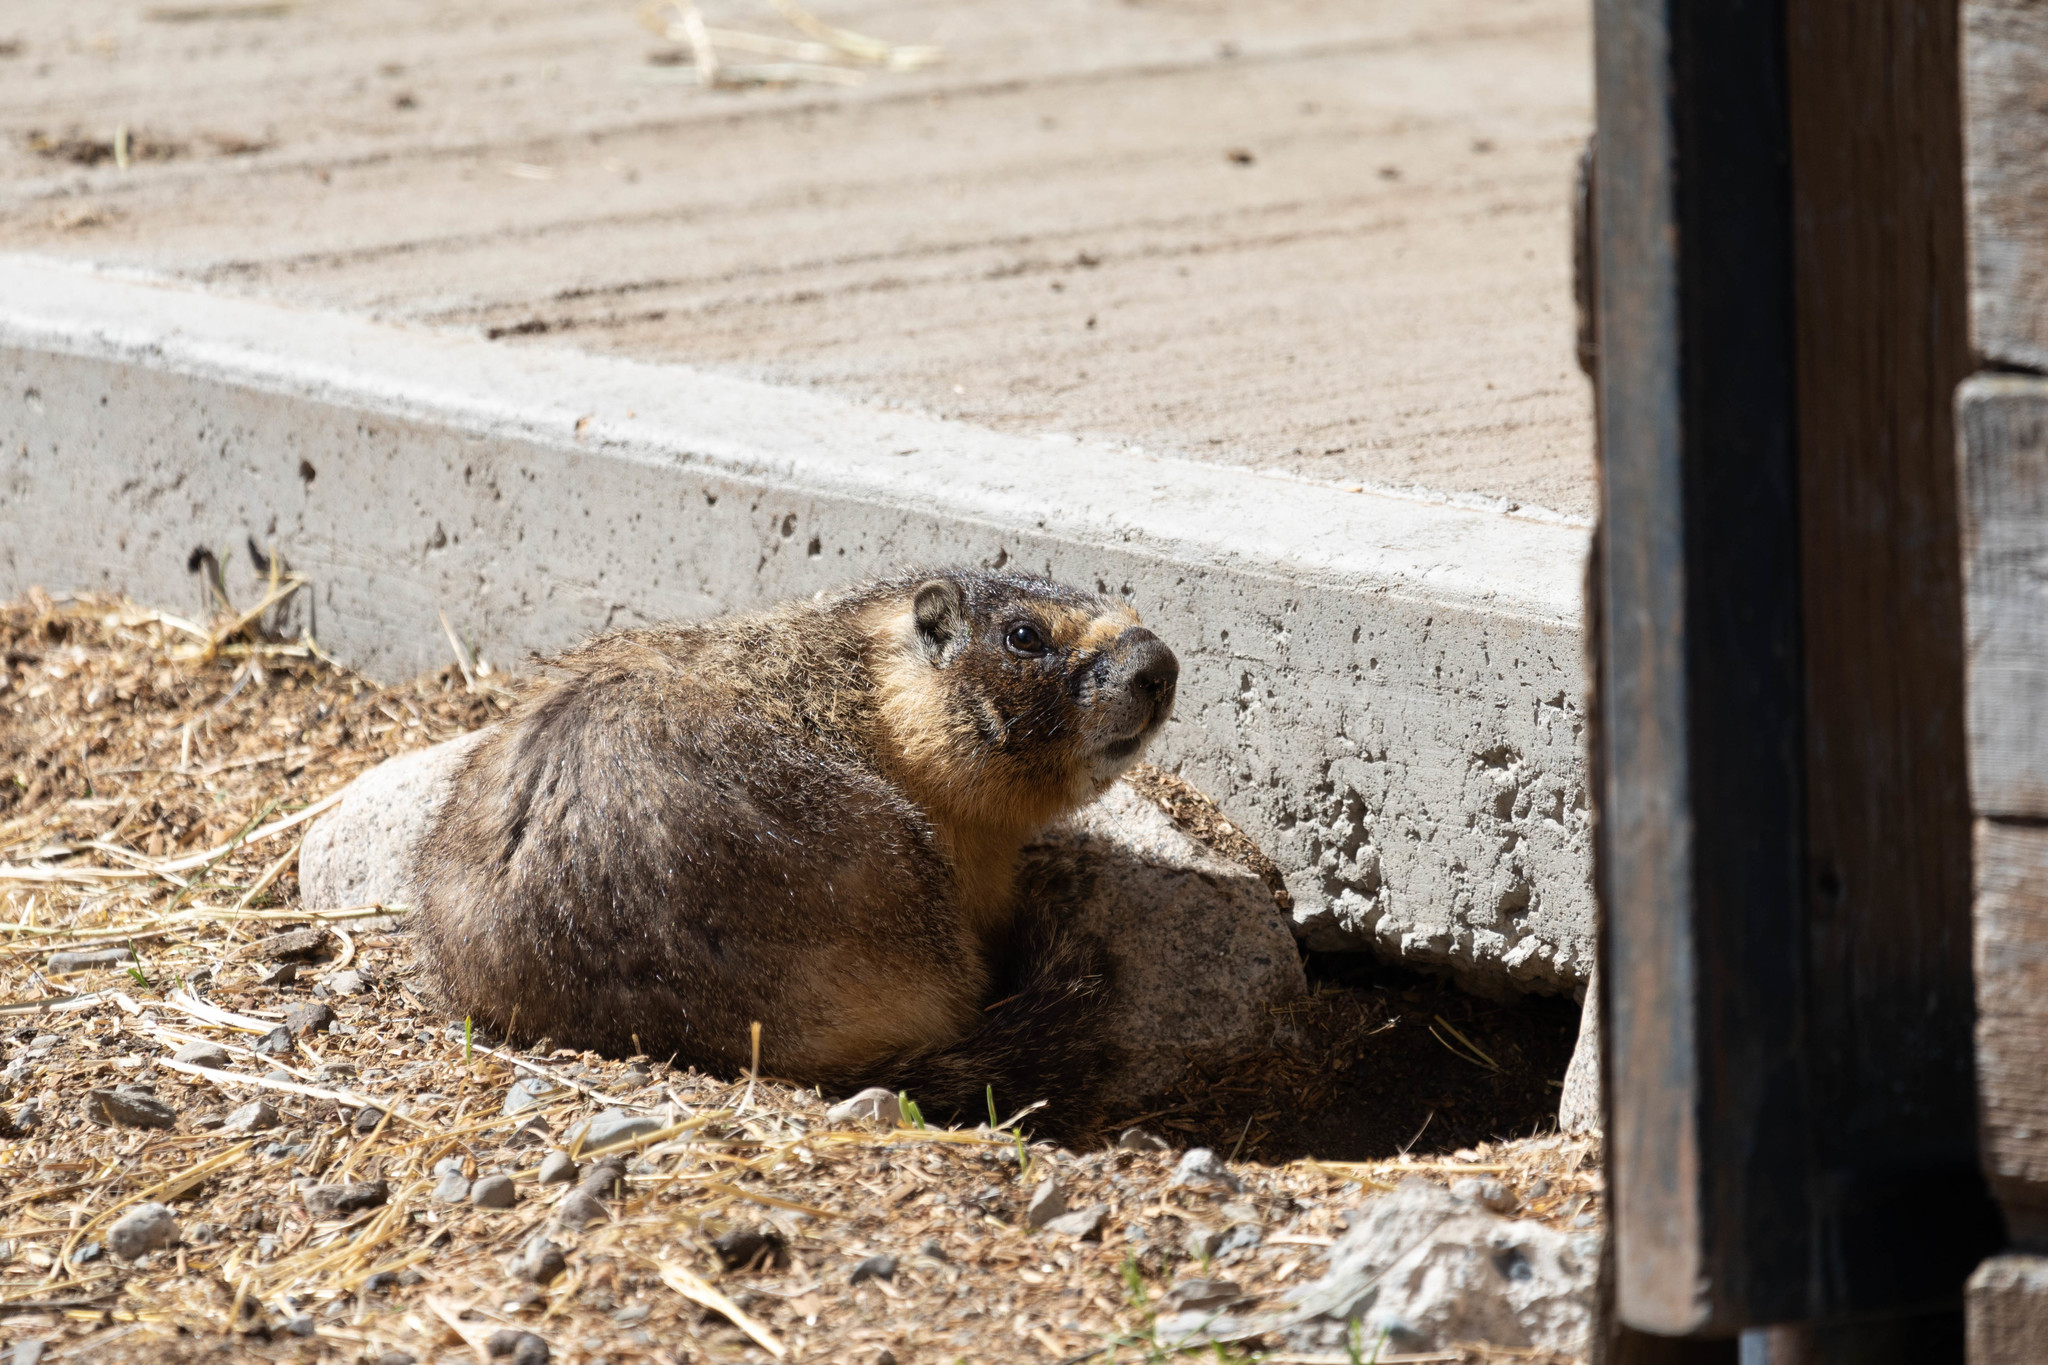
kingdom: Animalia
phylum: Chordata
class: Mammalia
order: Rodentia
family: Sciuridae
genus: Marmota
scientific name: Marmota flaviventris
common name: Yellow-bellied marmot
